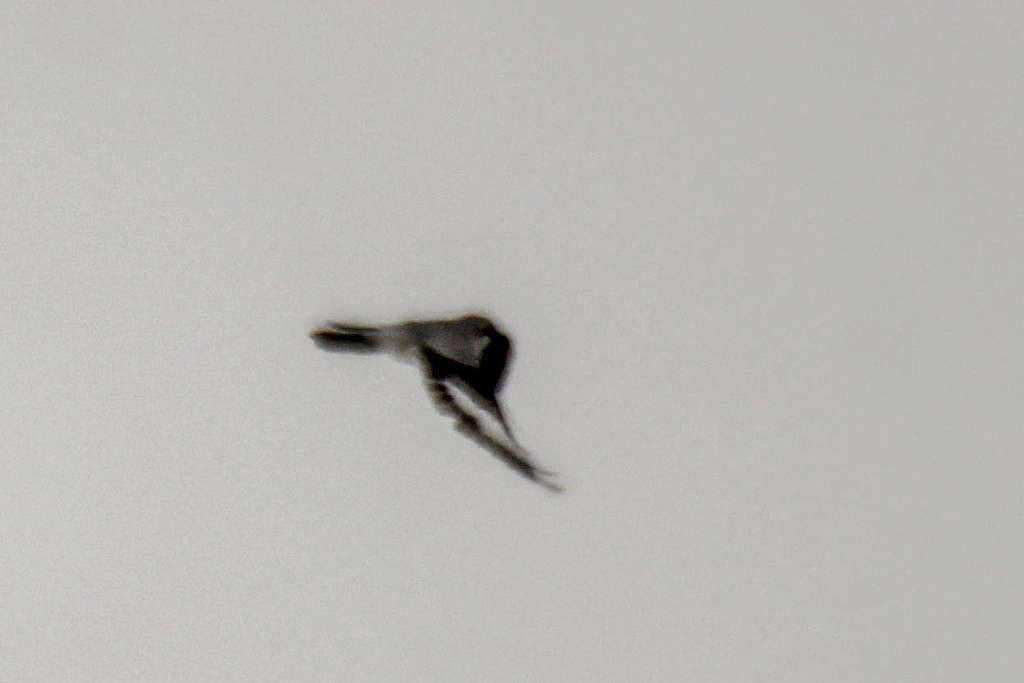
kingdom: Animalia
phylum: Chordata
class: Aves
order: Passeriformes
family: Laniidae
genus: Lanius
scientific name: Lanius excubitor
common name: Great grey shrike
